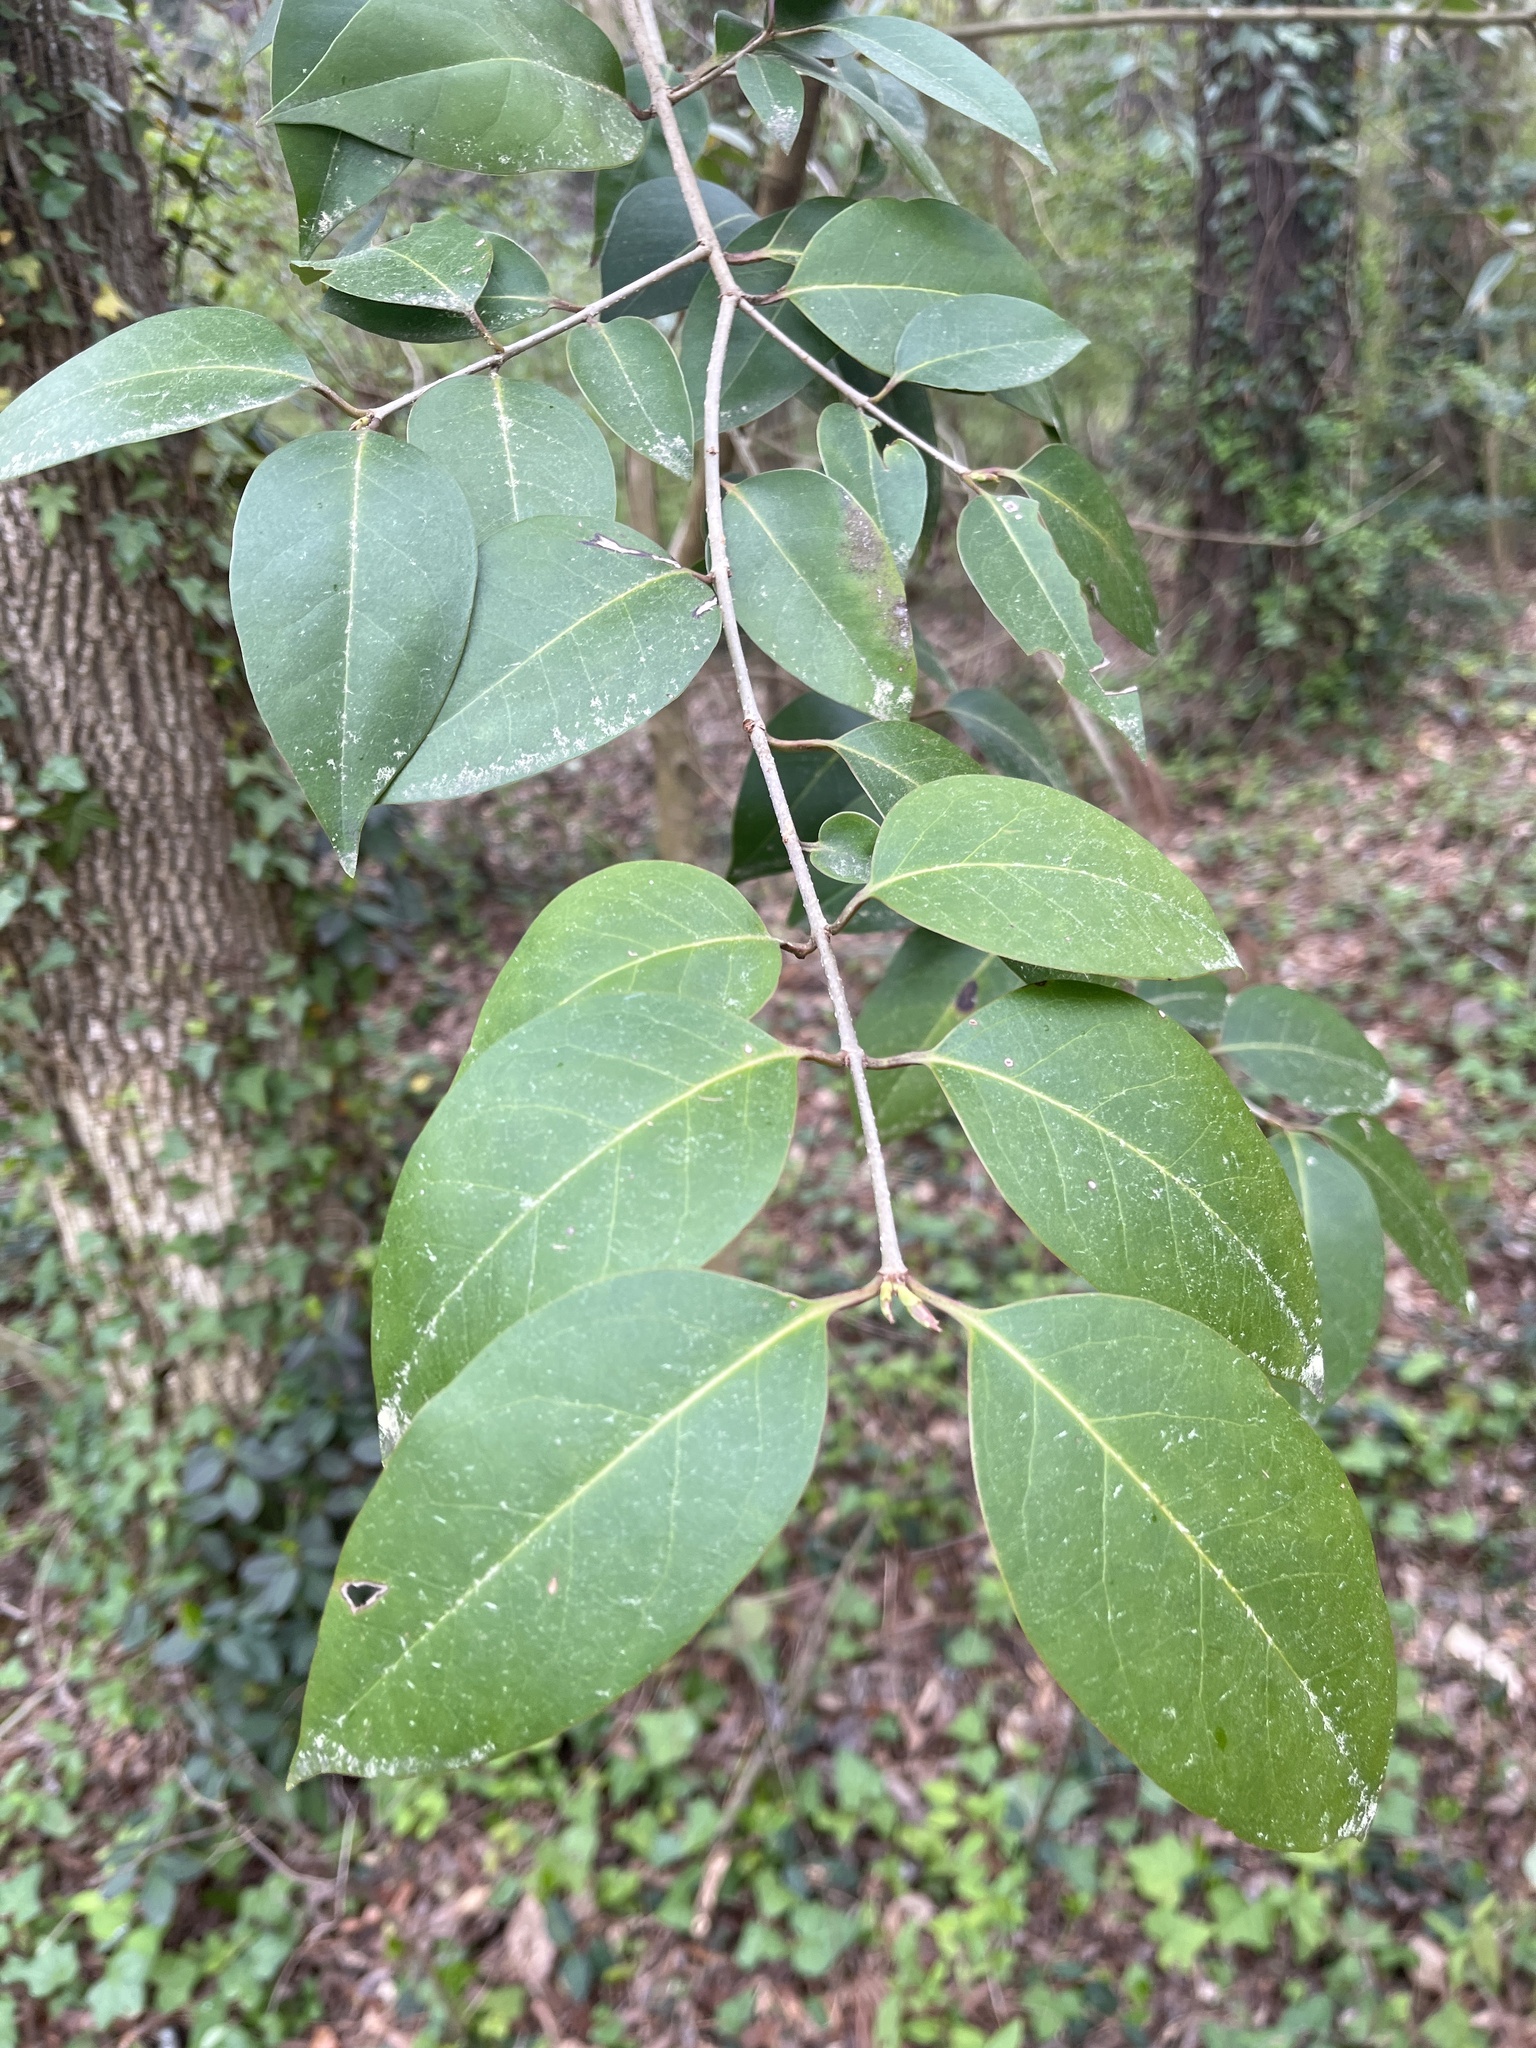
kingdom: Plantae
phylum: Tracheophyta
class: Magnoliopsida
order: Lamiales
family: Oleaceae
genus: Ligustrum
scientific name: Ligustrum lucidum
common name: Glossy privet
